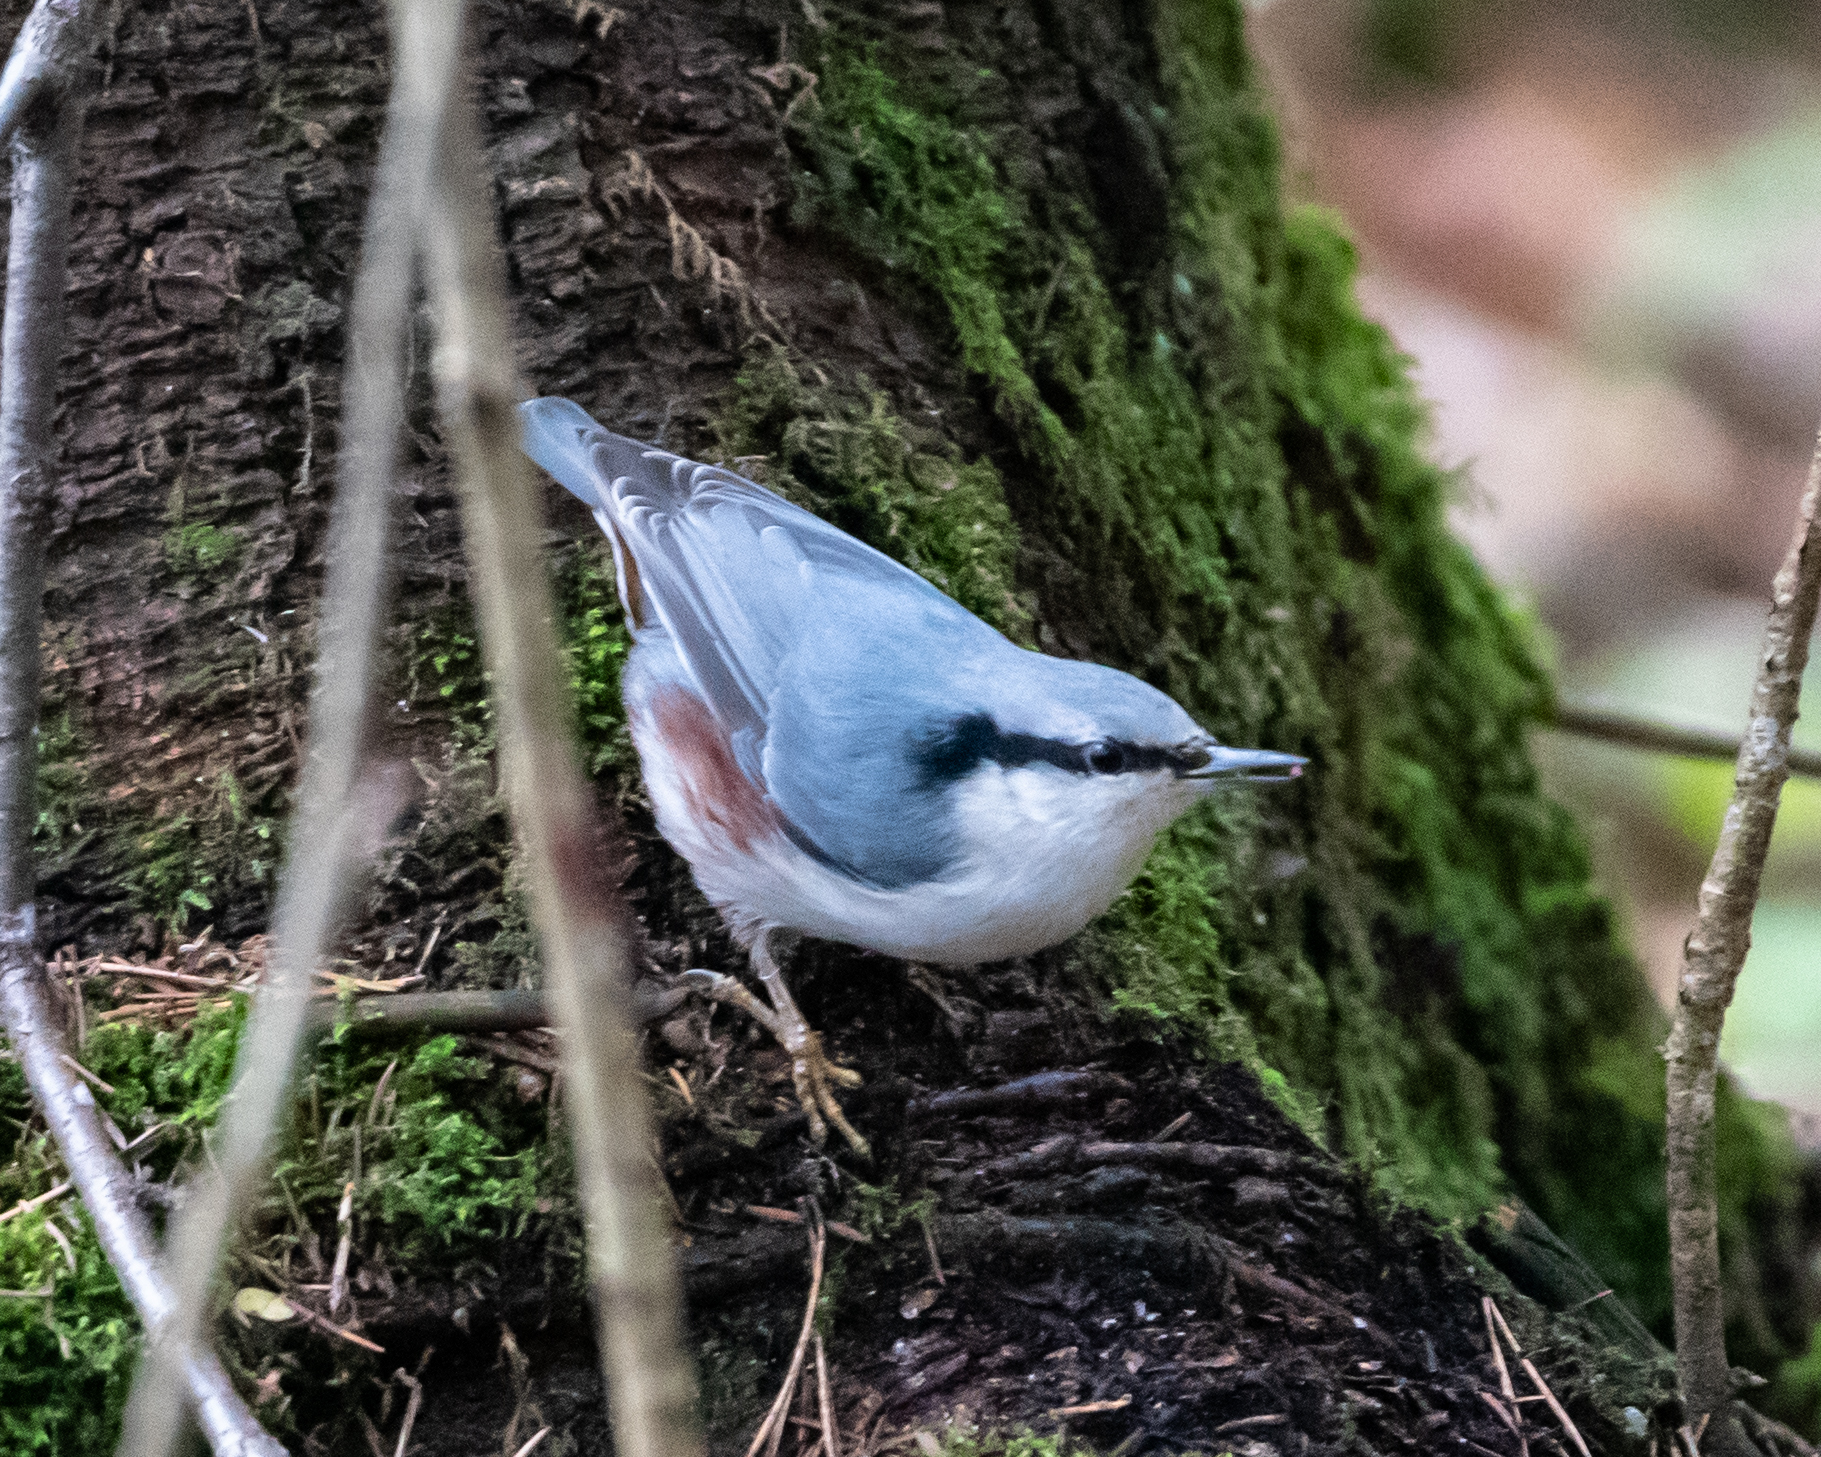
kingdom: Animalia
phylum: Chordata
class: Aves
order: Passeriformes
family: Sittidae
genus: Sitta
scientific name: Sitta europaea
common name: Eurasian nuthatch
